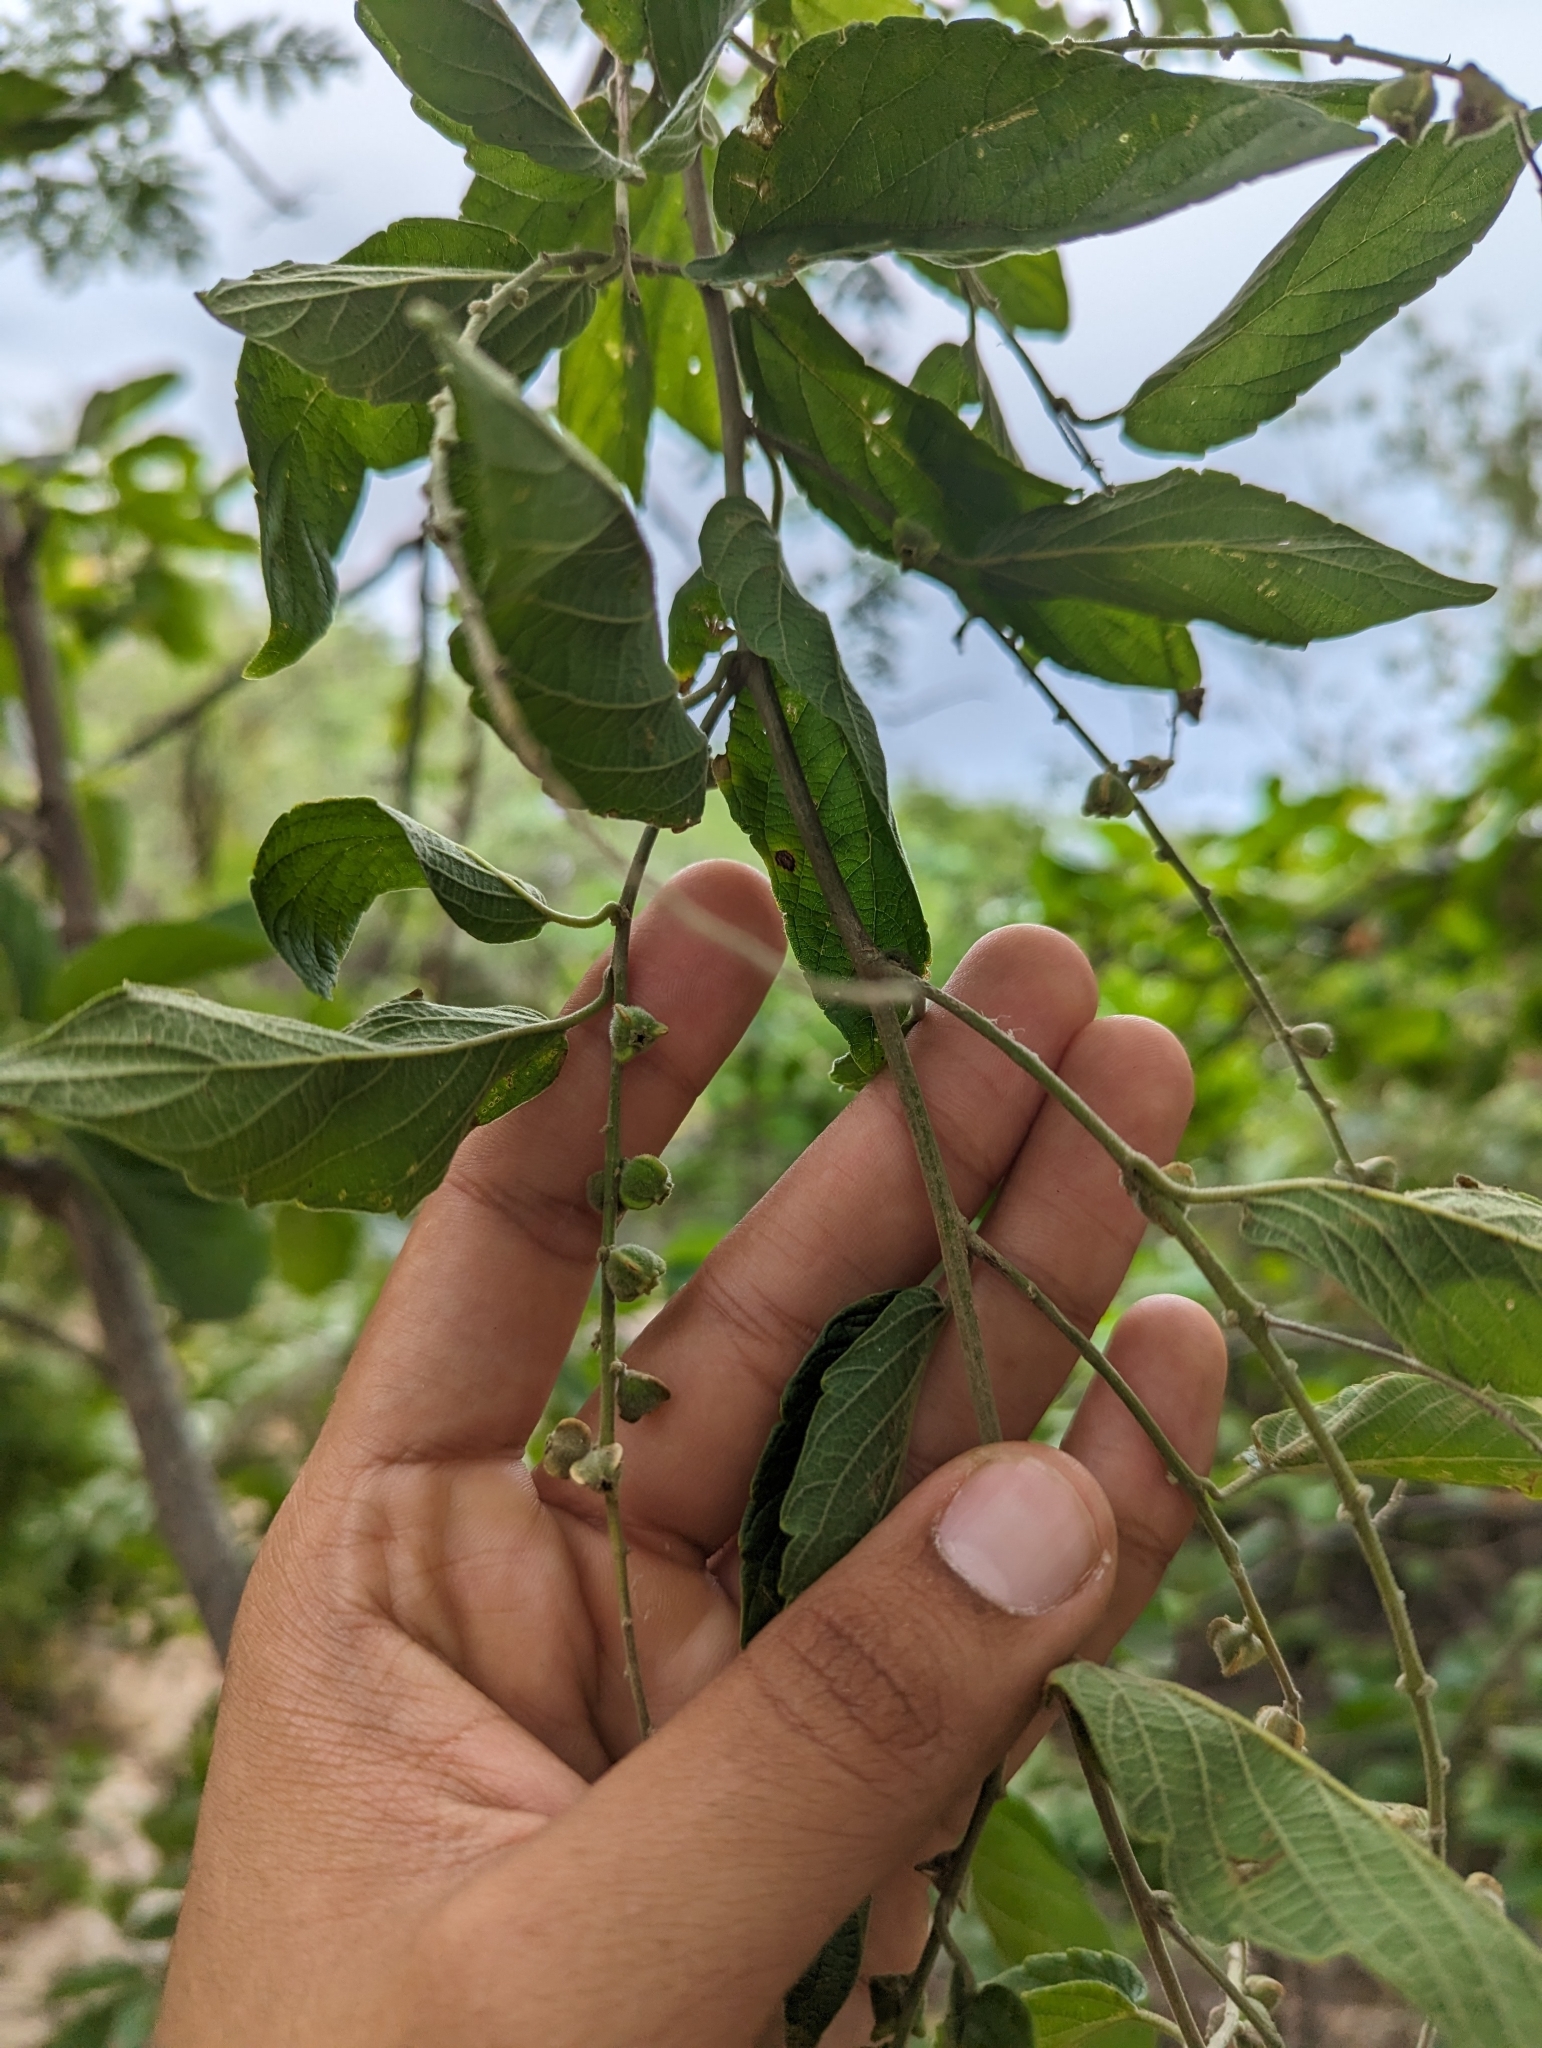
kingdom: Plantae
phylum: Tracheophyta
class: Magnoliopsida
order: Rosales
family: Rhamnaceae
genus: Gouania
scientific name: Gouania rosei
